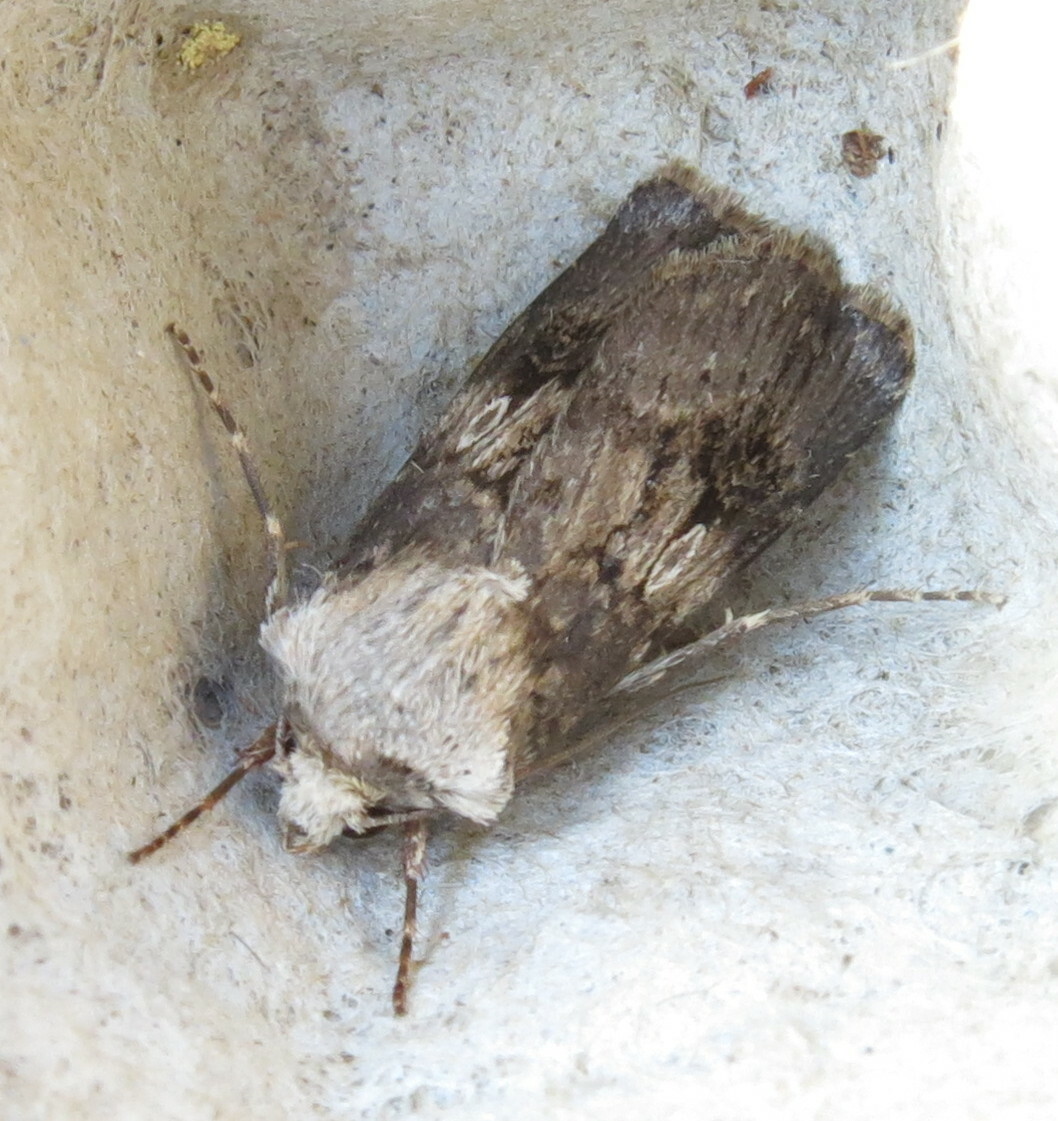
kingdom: Animalia
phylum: Arthropoda
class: Insecta
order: Lepidoptera
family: Noctuidae
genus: Agrotis
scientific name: Agrotis puta
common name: Shuttle-shaped dart
